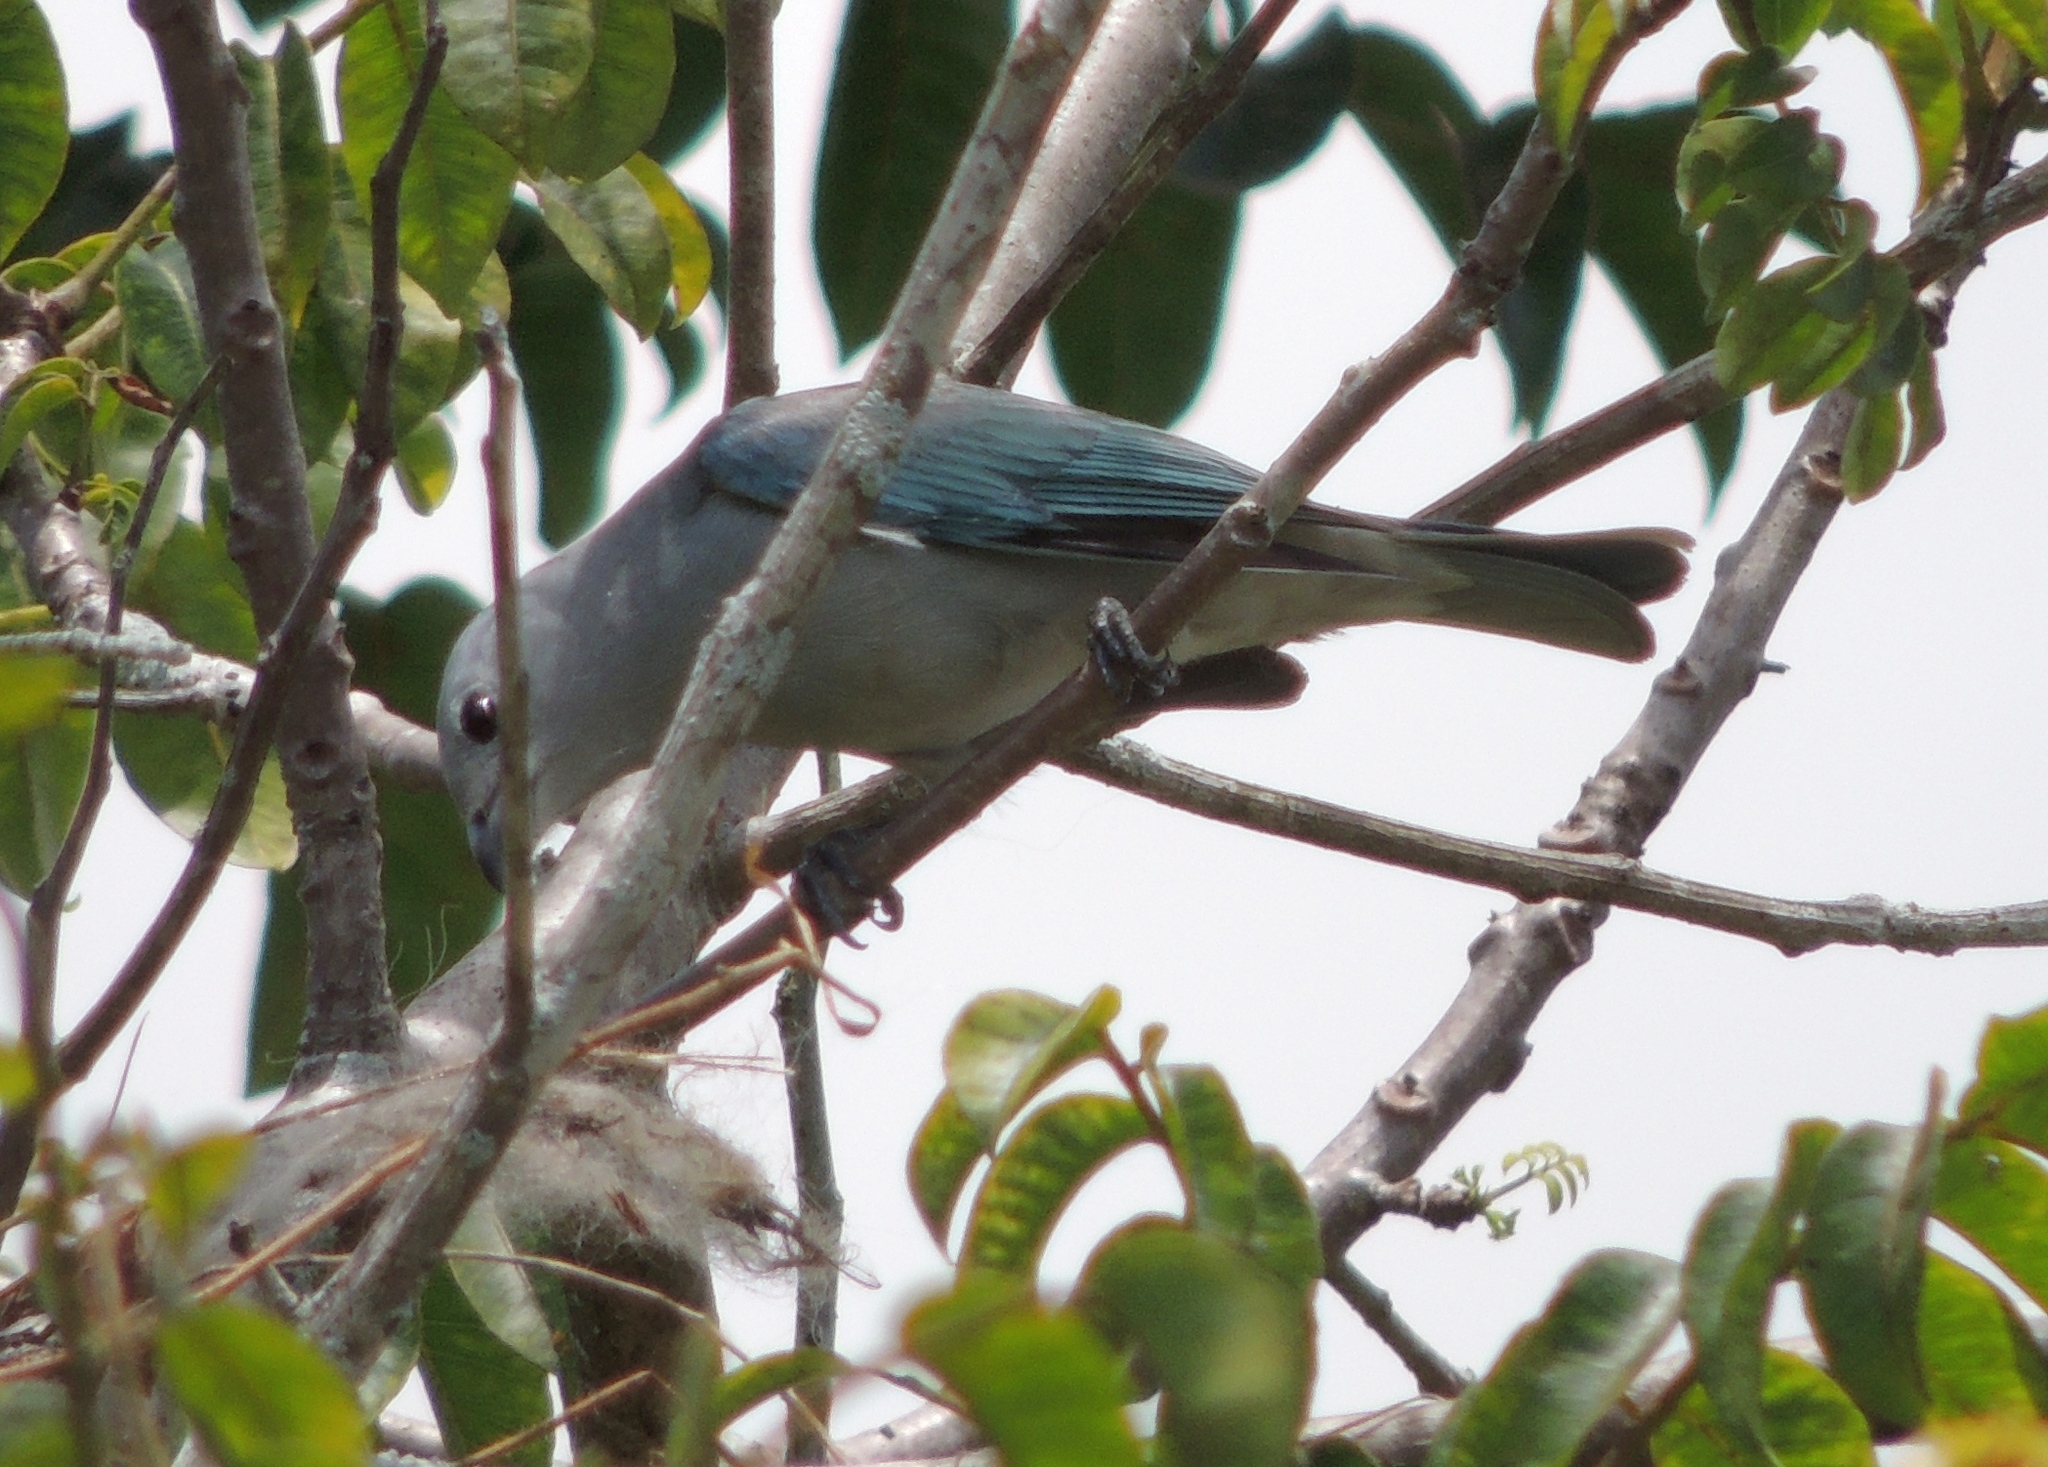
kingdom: Animalia
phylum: Chordata
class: Aves
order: Passeriformes
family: Thraupidae
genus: Thraupis
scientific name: Thraupis sayaca
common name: Sayaca tanager
